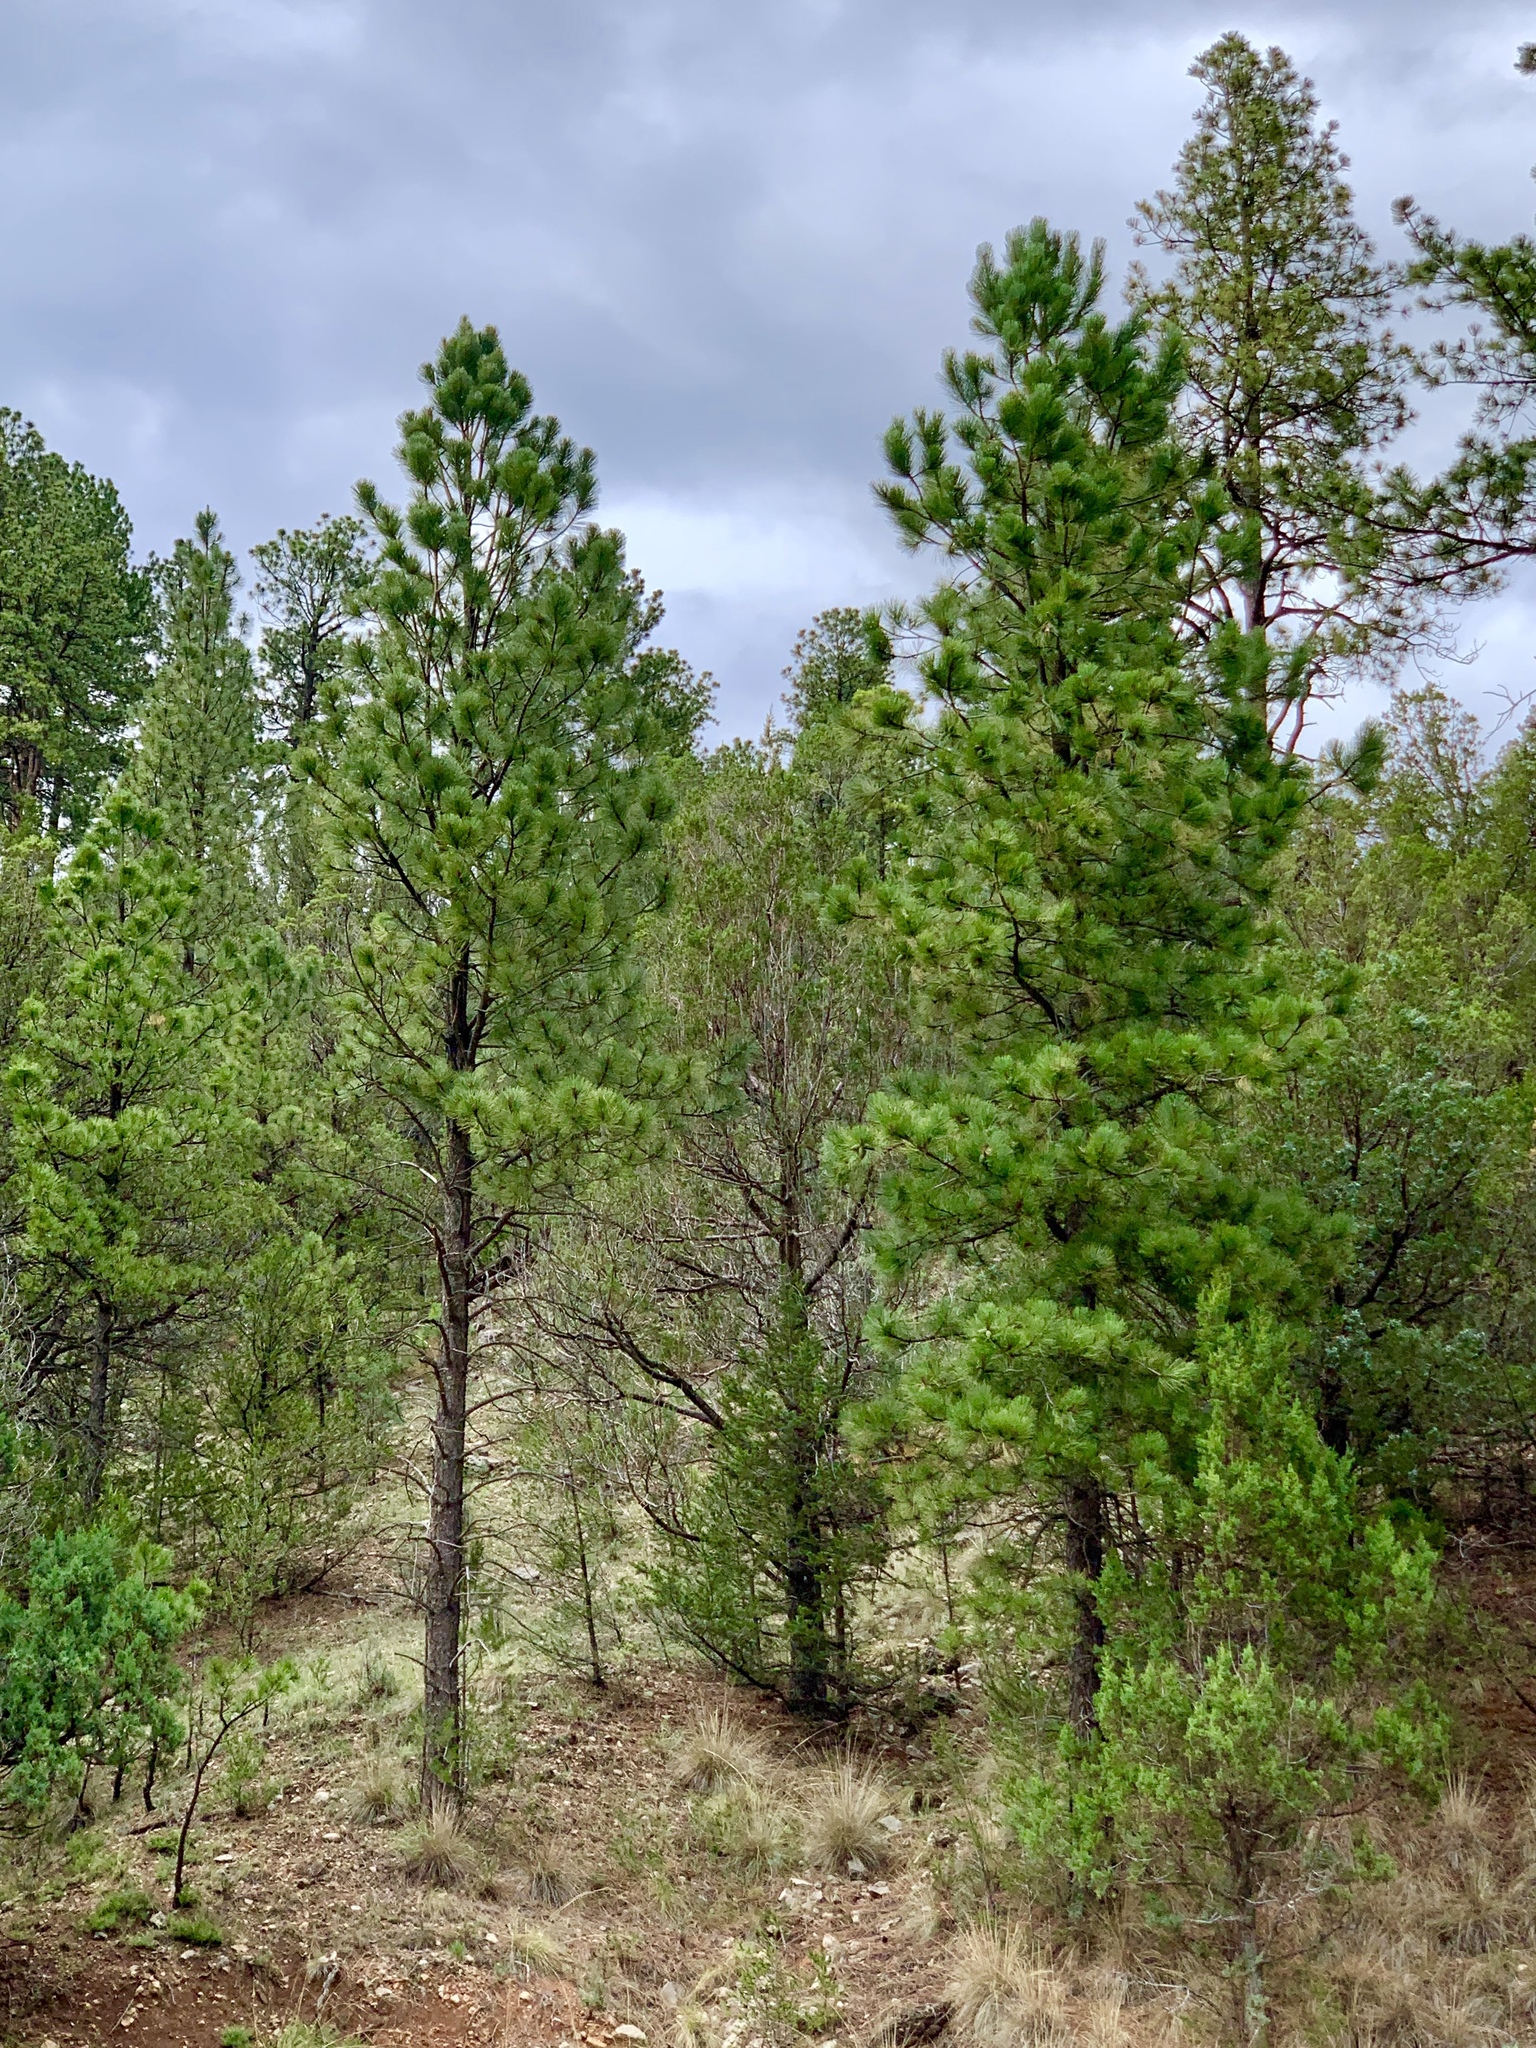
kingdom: Plantae
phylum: Tracheophyta
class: Pinopsida
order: Pinales
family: Pinaceae
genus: Pinus
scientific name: Pinus ponderosa
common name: Western yellow-pine
